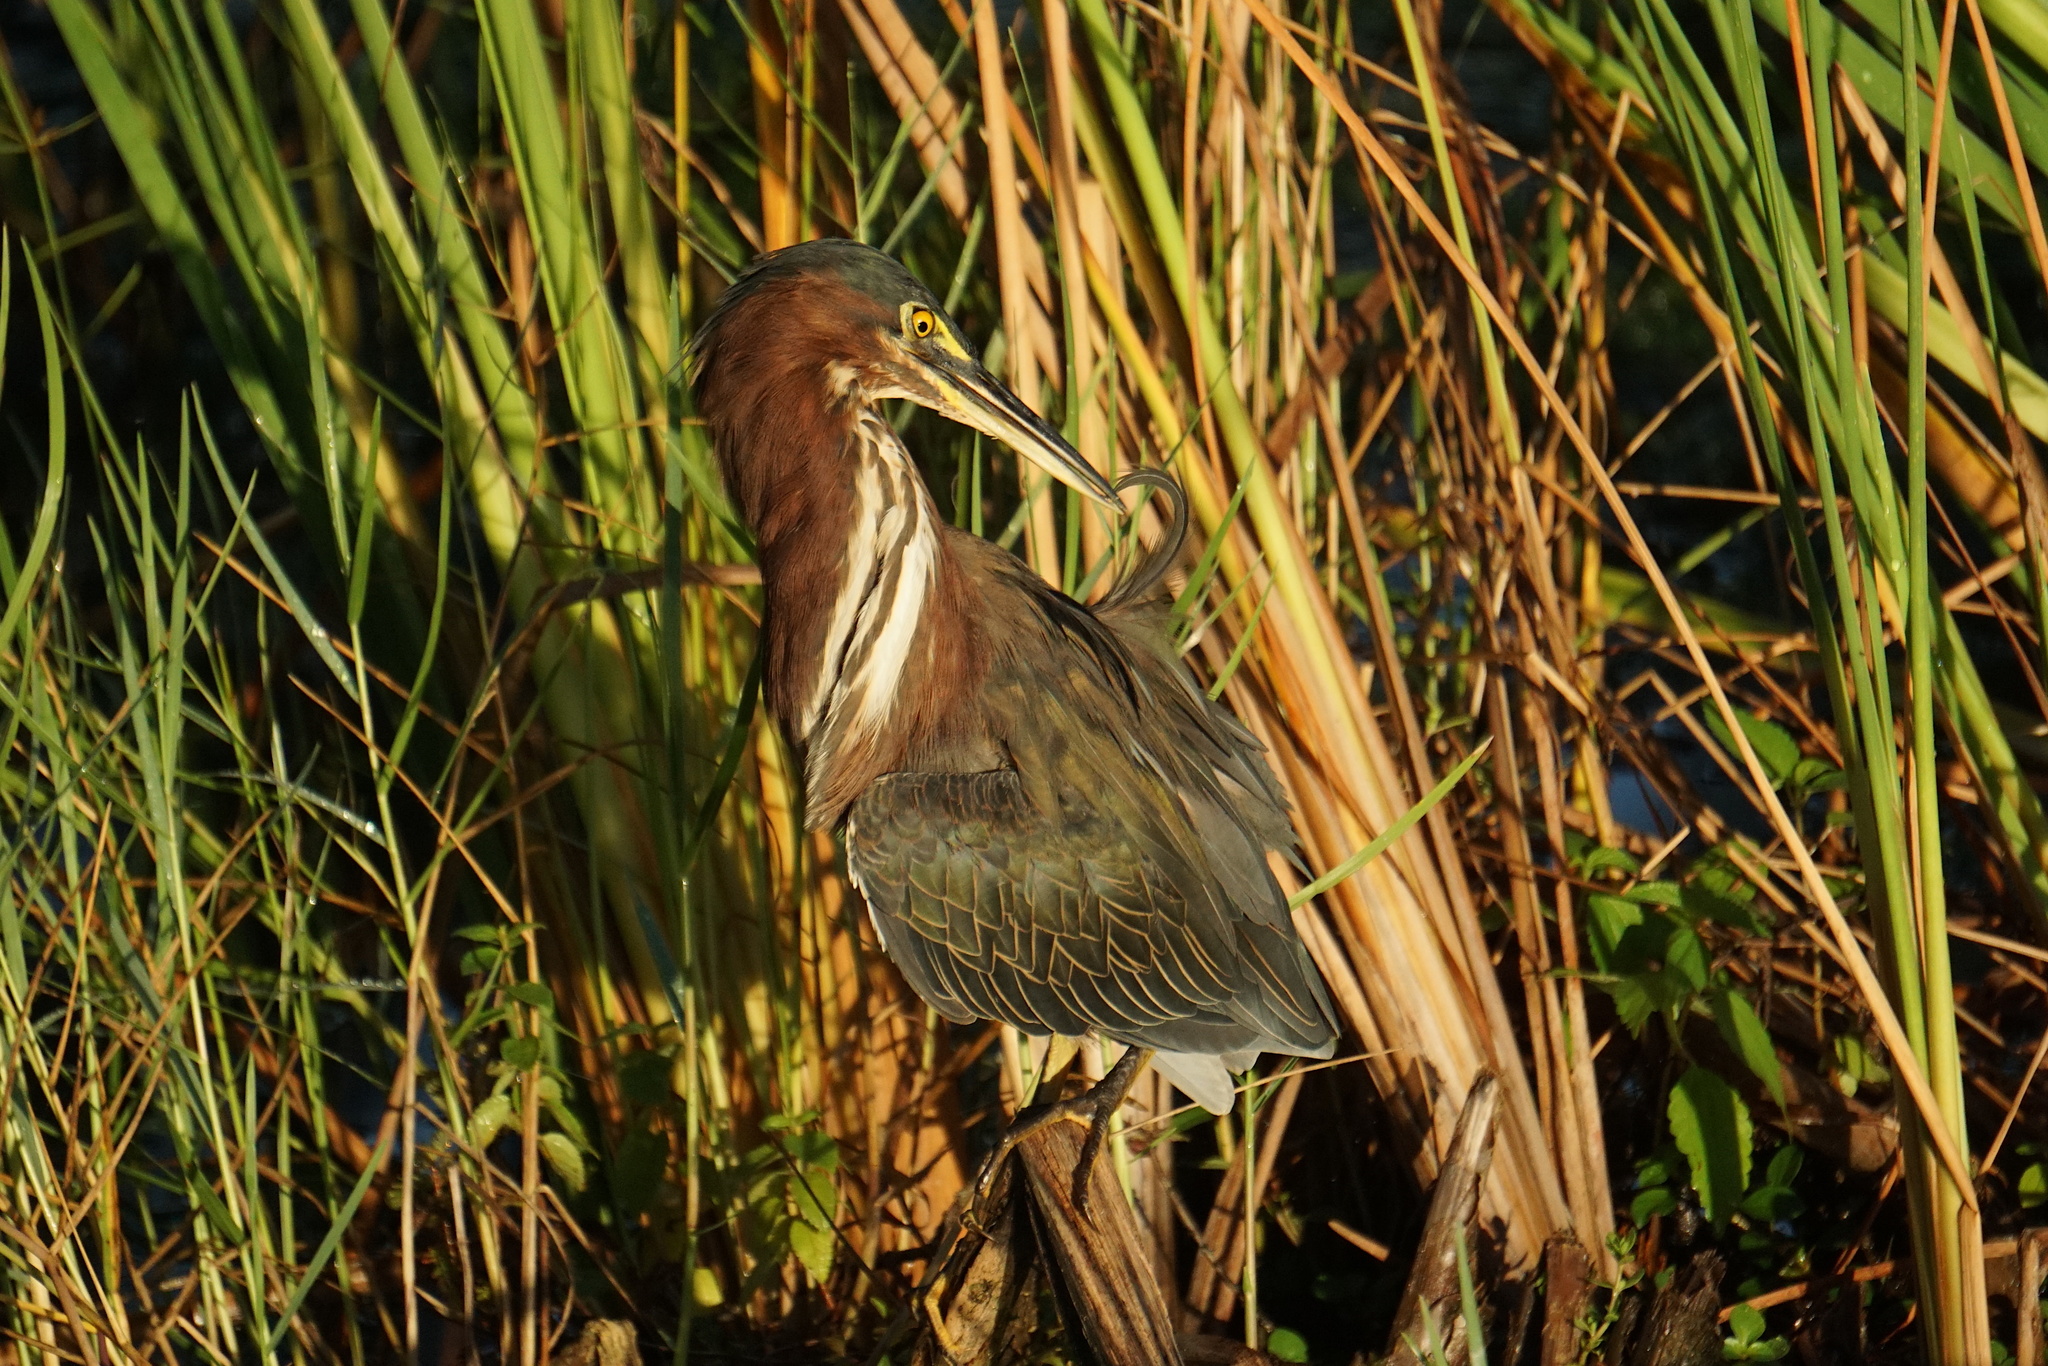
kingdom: Animalia
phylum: Chordata
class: Aves
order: Pelecaniformes
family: Ardeidae
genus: Butorides
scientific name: Butorides virescens
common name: Green heron
